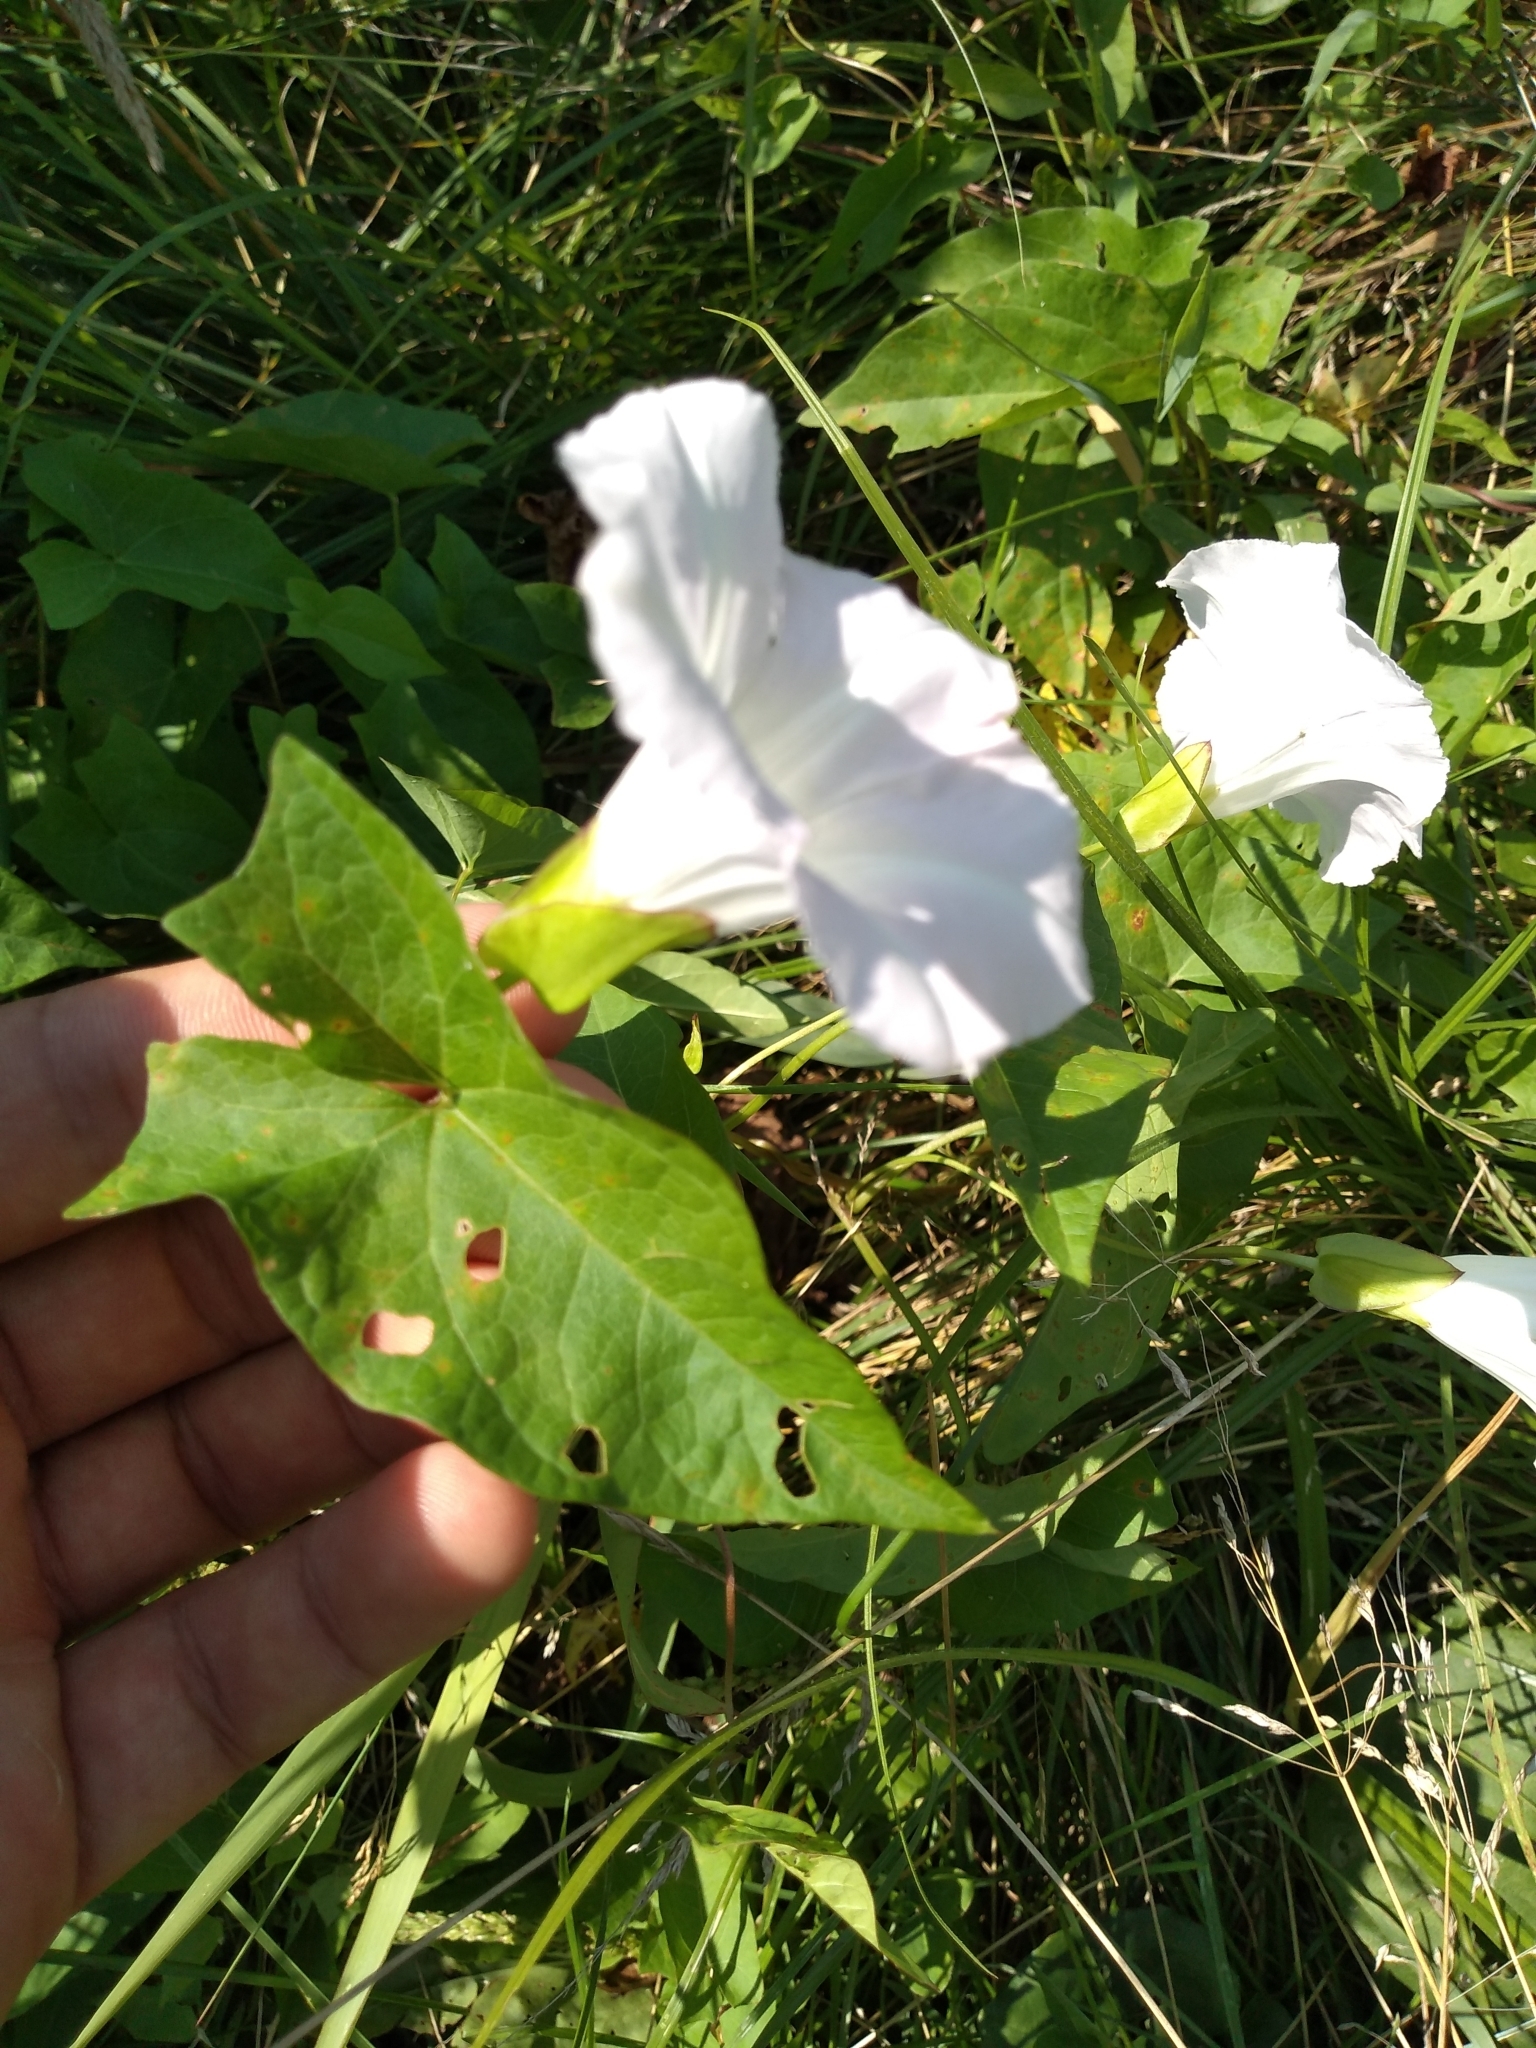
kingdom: Plantae
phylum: Tracheophyta
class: Magnoliopsida
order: Solanales
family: Convolvulaceae
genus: Calystegia
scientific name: Calystegia sepium
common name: Hedge bindweed
